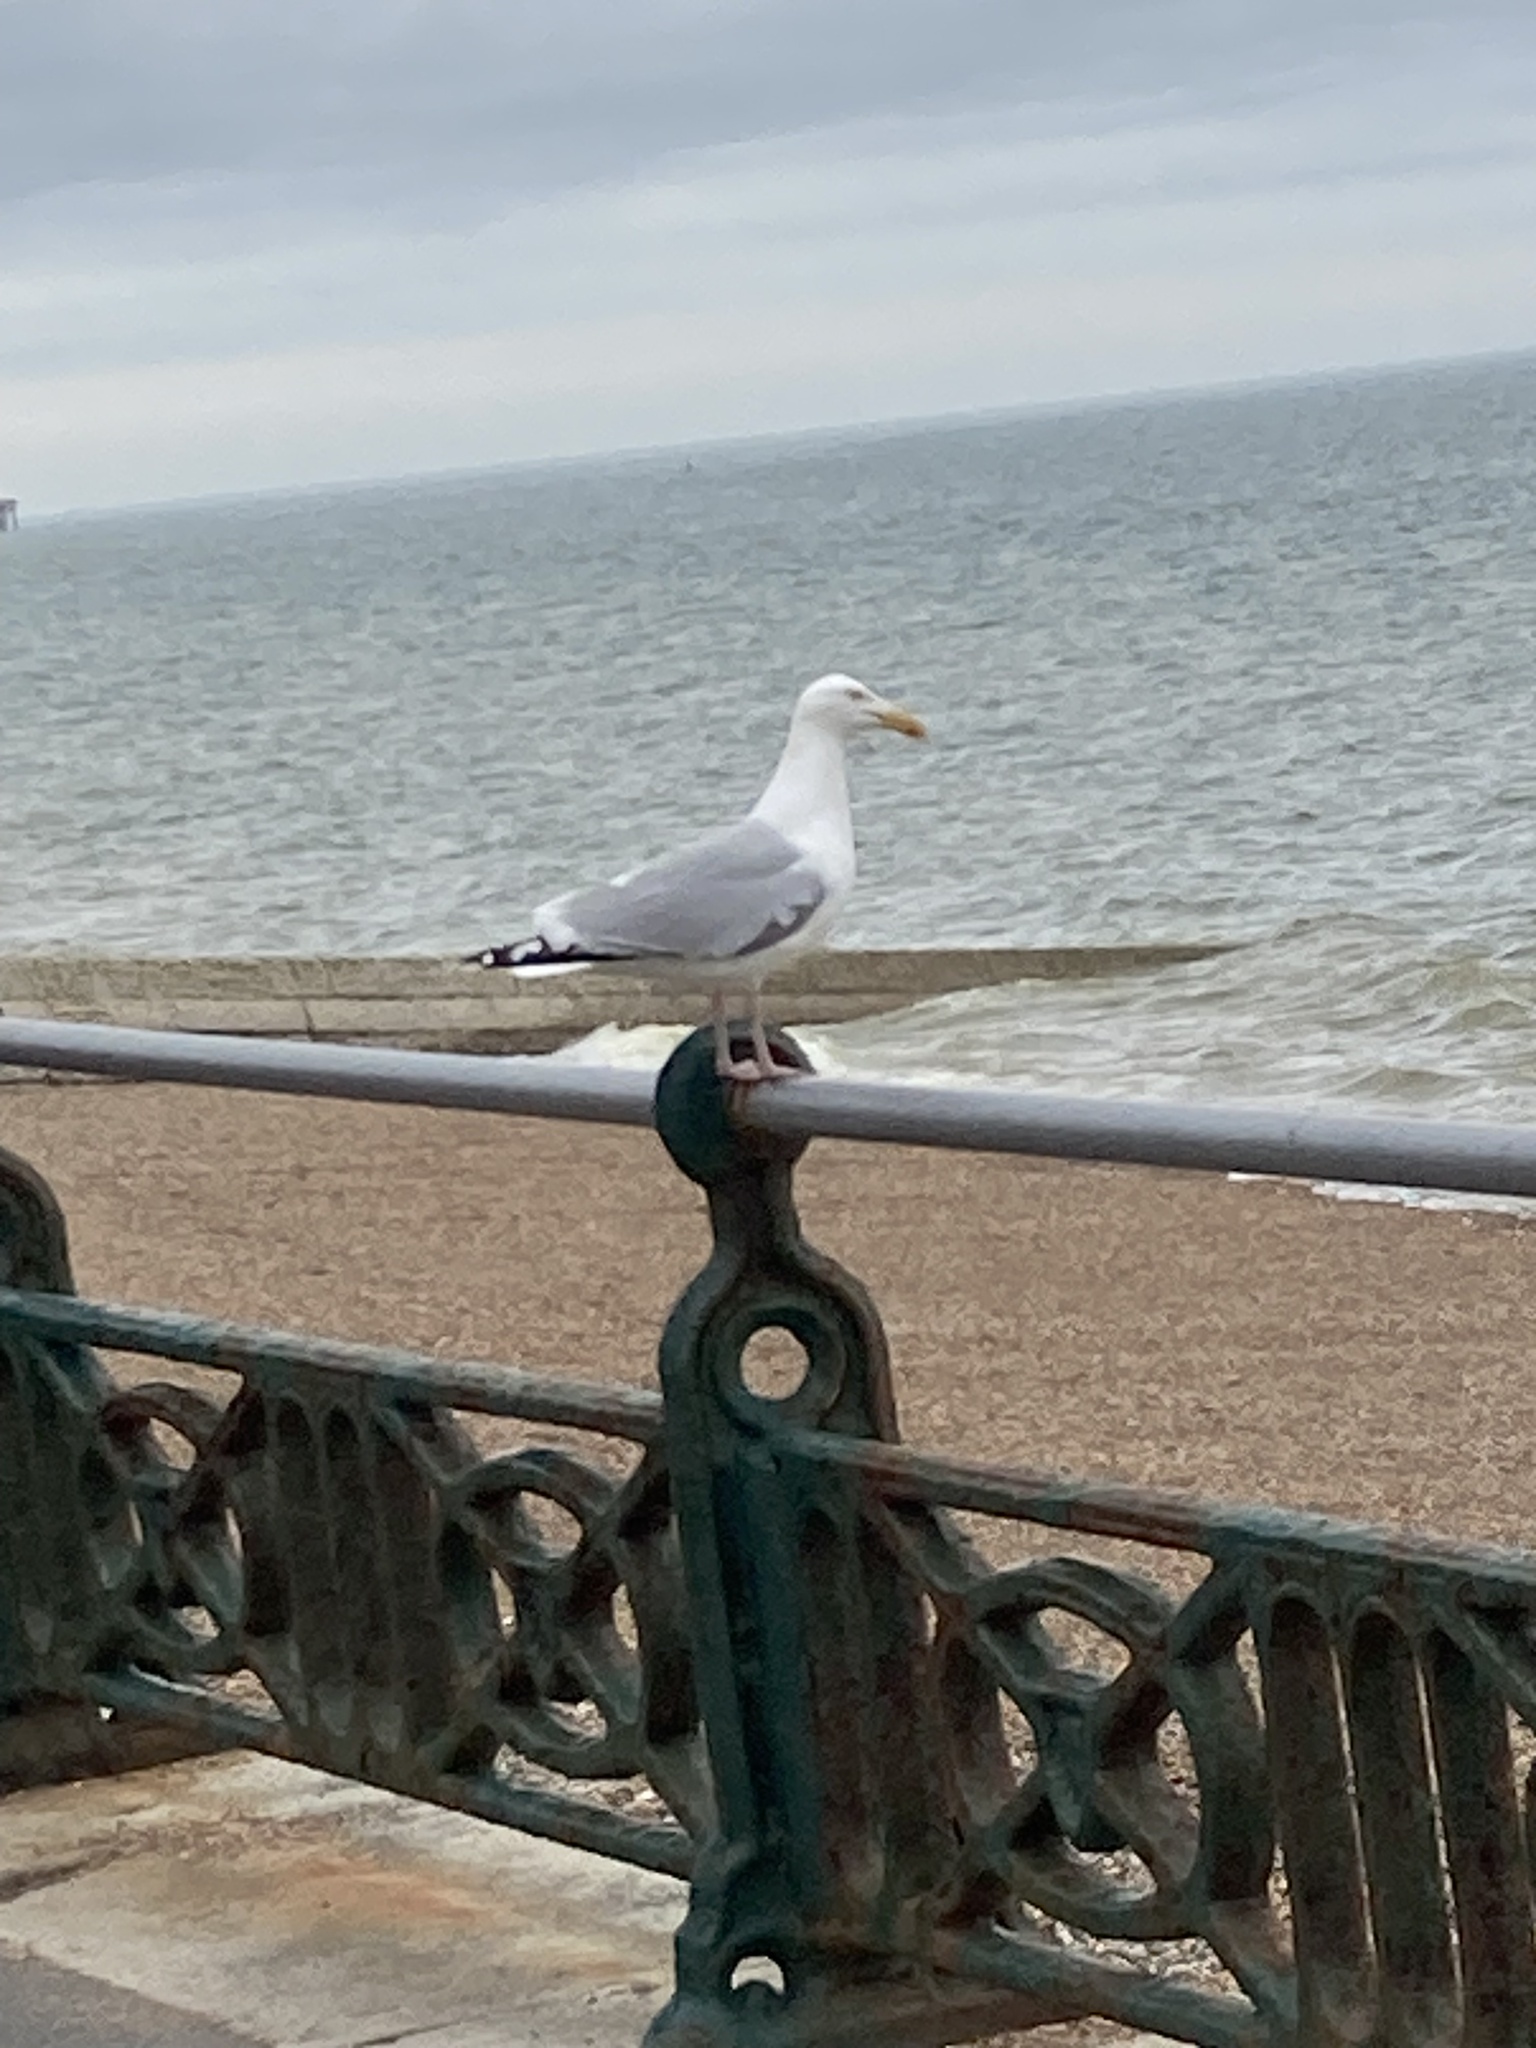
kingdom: Animalia
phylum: Chordata
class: Aves
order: Charadriiformes
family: Laridae
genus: Larus
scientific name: Larus argentatus
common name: Herring gull
